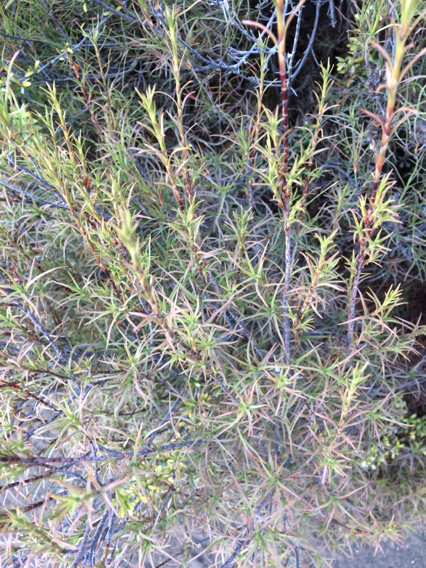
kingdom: Plantae
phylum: Tracheophyta
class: Magnoliopsida
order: Ericales
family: Ericaceae
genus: Dracophyllum
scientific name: Dracophyllum recurvum
